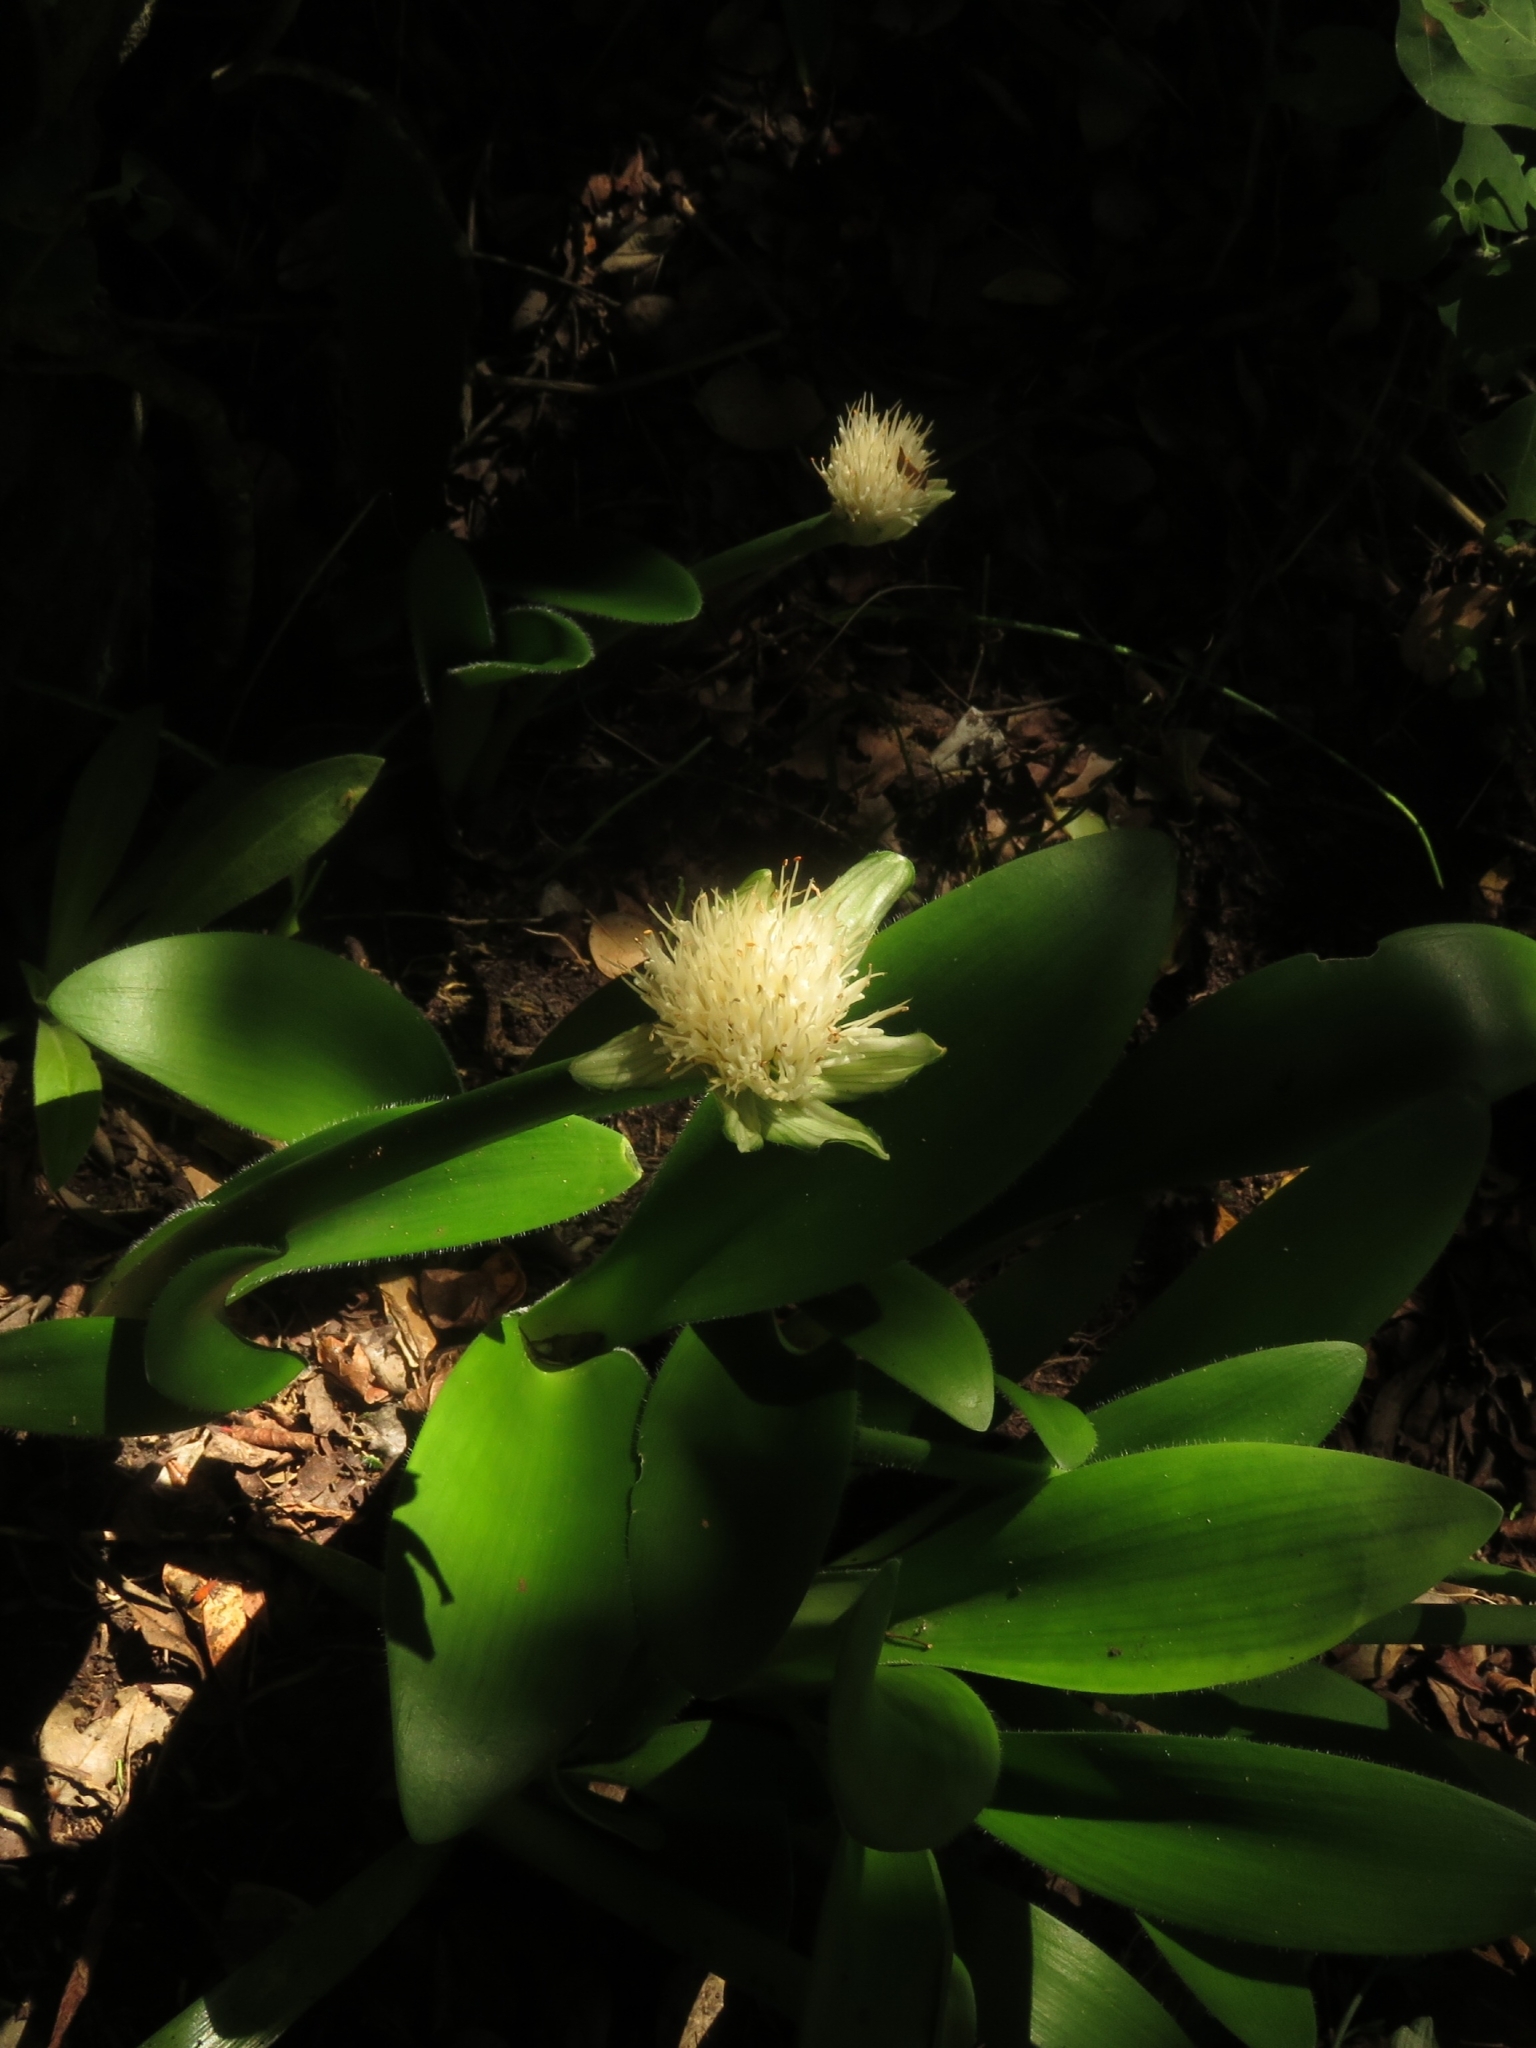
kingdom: Plantae
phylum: Tracheophyta
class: Liliopsida
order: Asparagales
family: Amaryllidaceae
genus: Haemanthus
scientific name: Haemanthus albiflos
